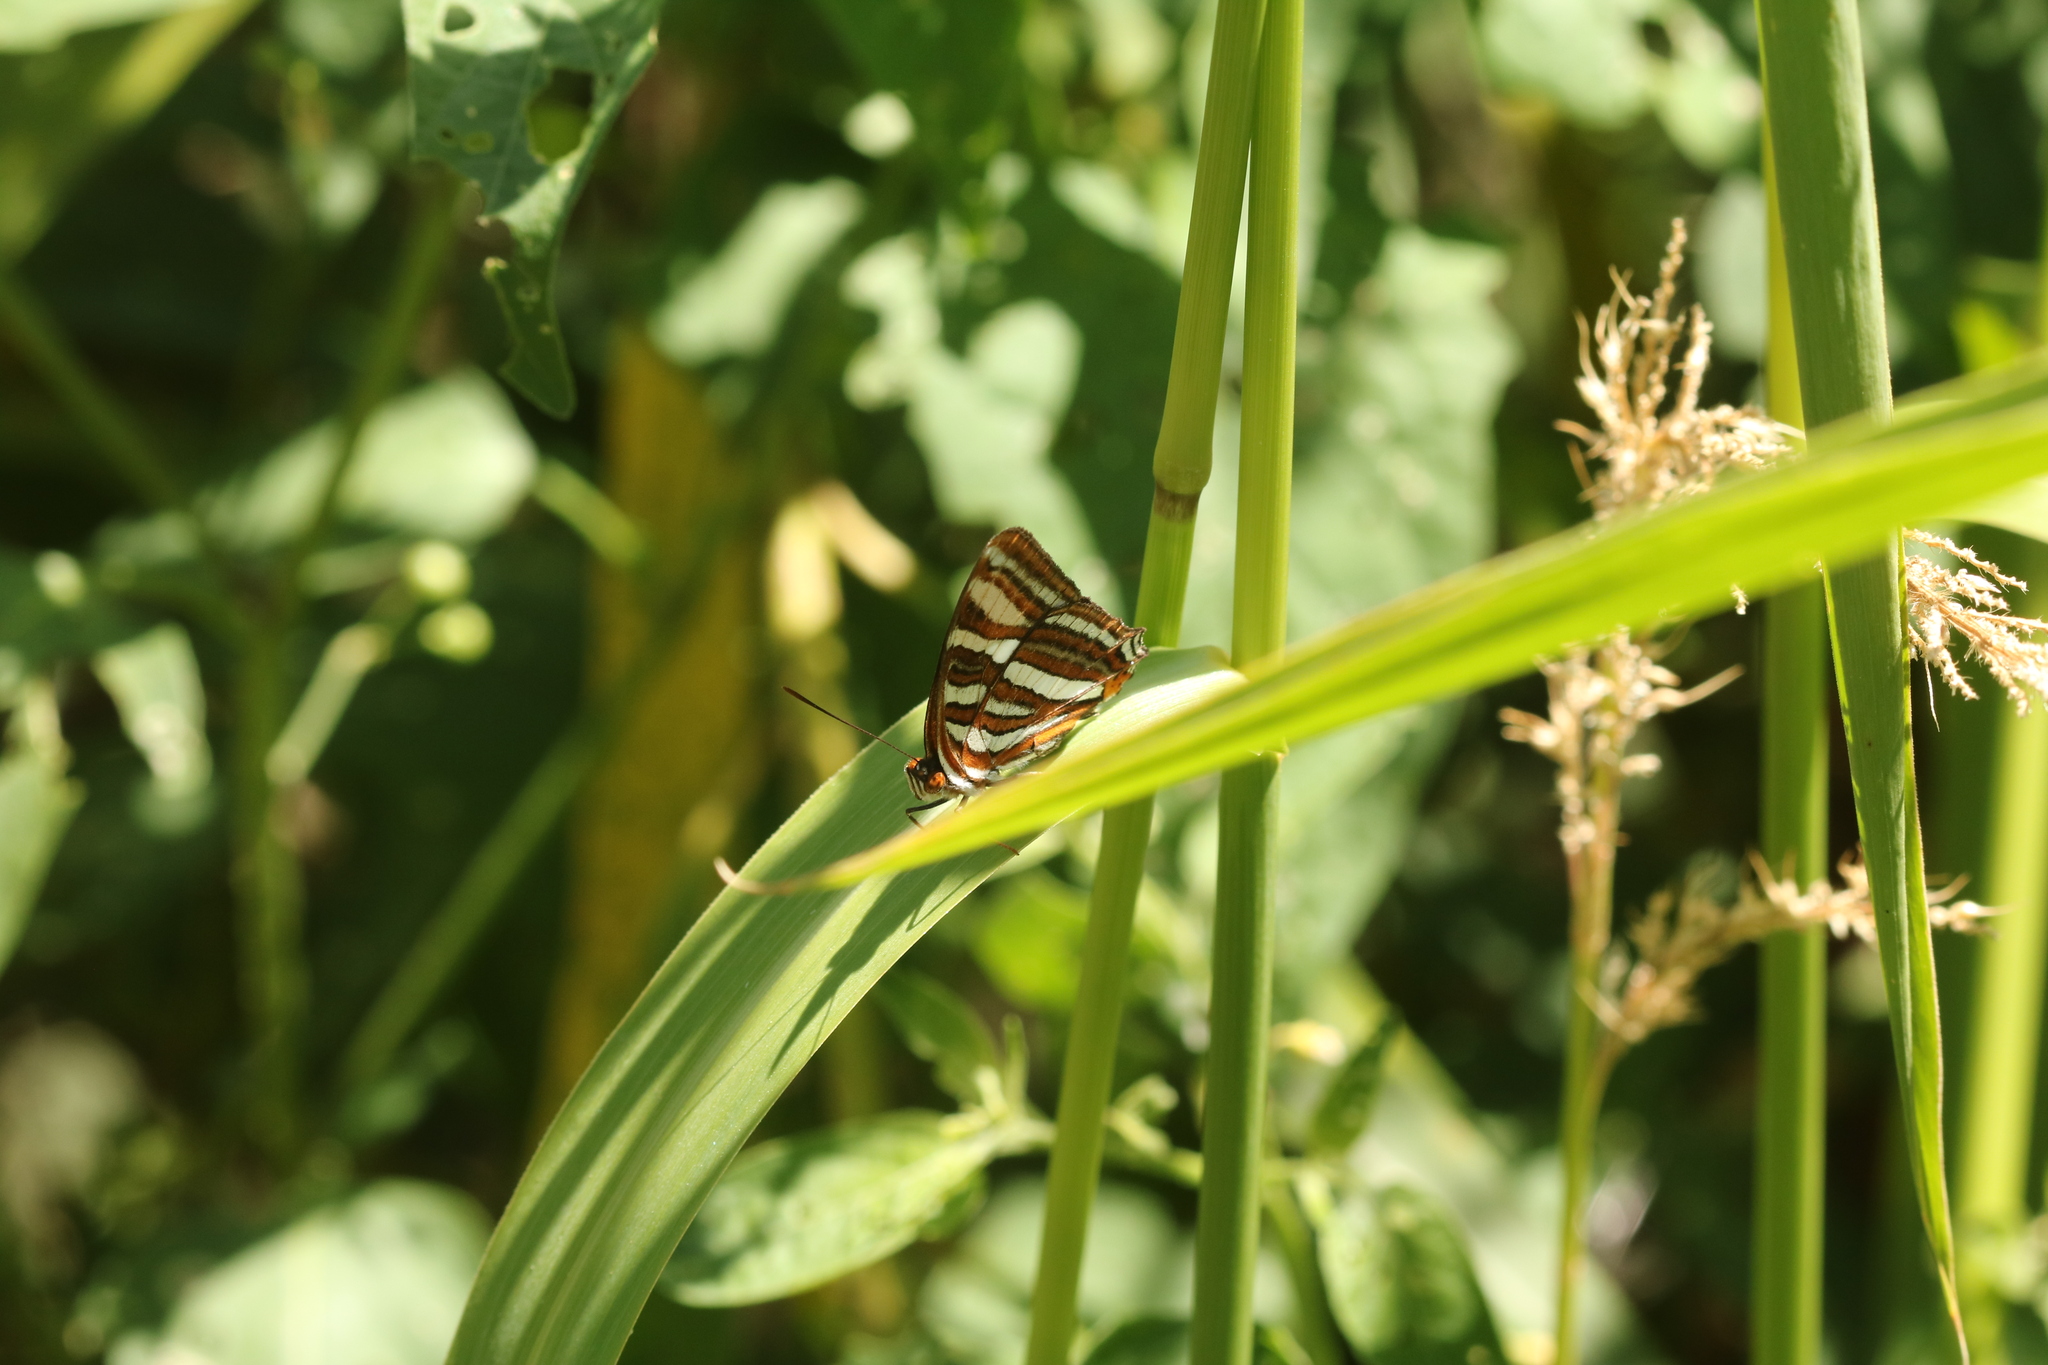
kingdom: Animalia
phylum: Arthropoda
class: Insecta
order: Lepidoptera
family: Nymphalidae
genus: Limenitis
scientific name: Limenitis syma
